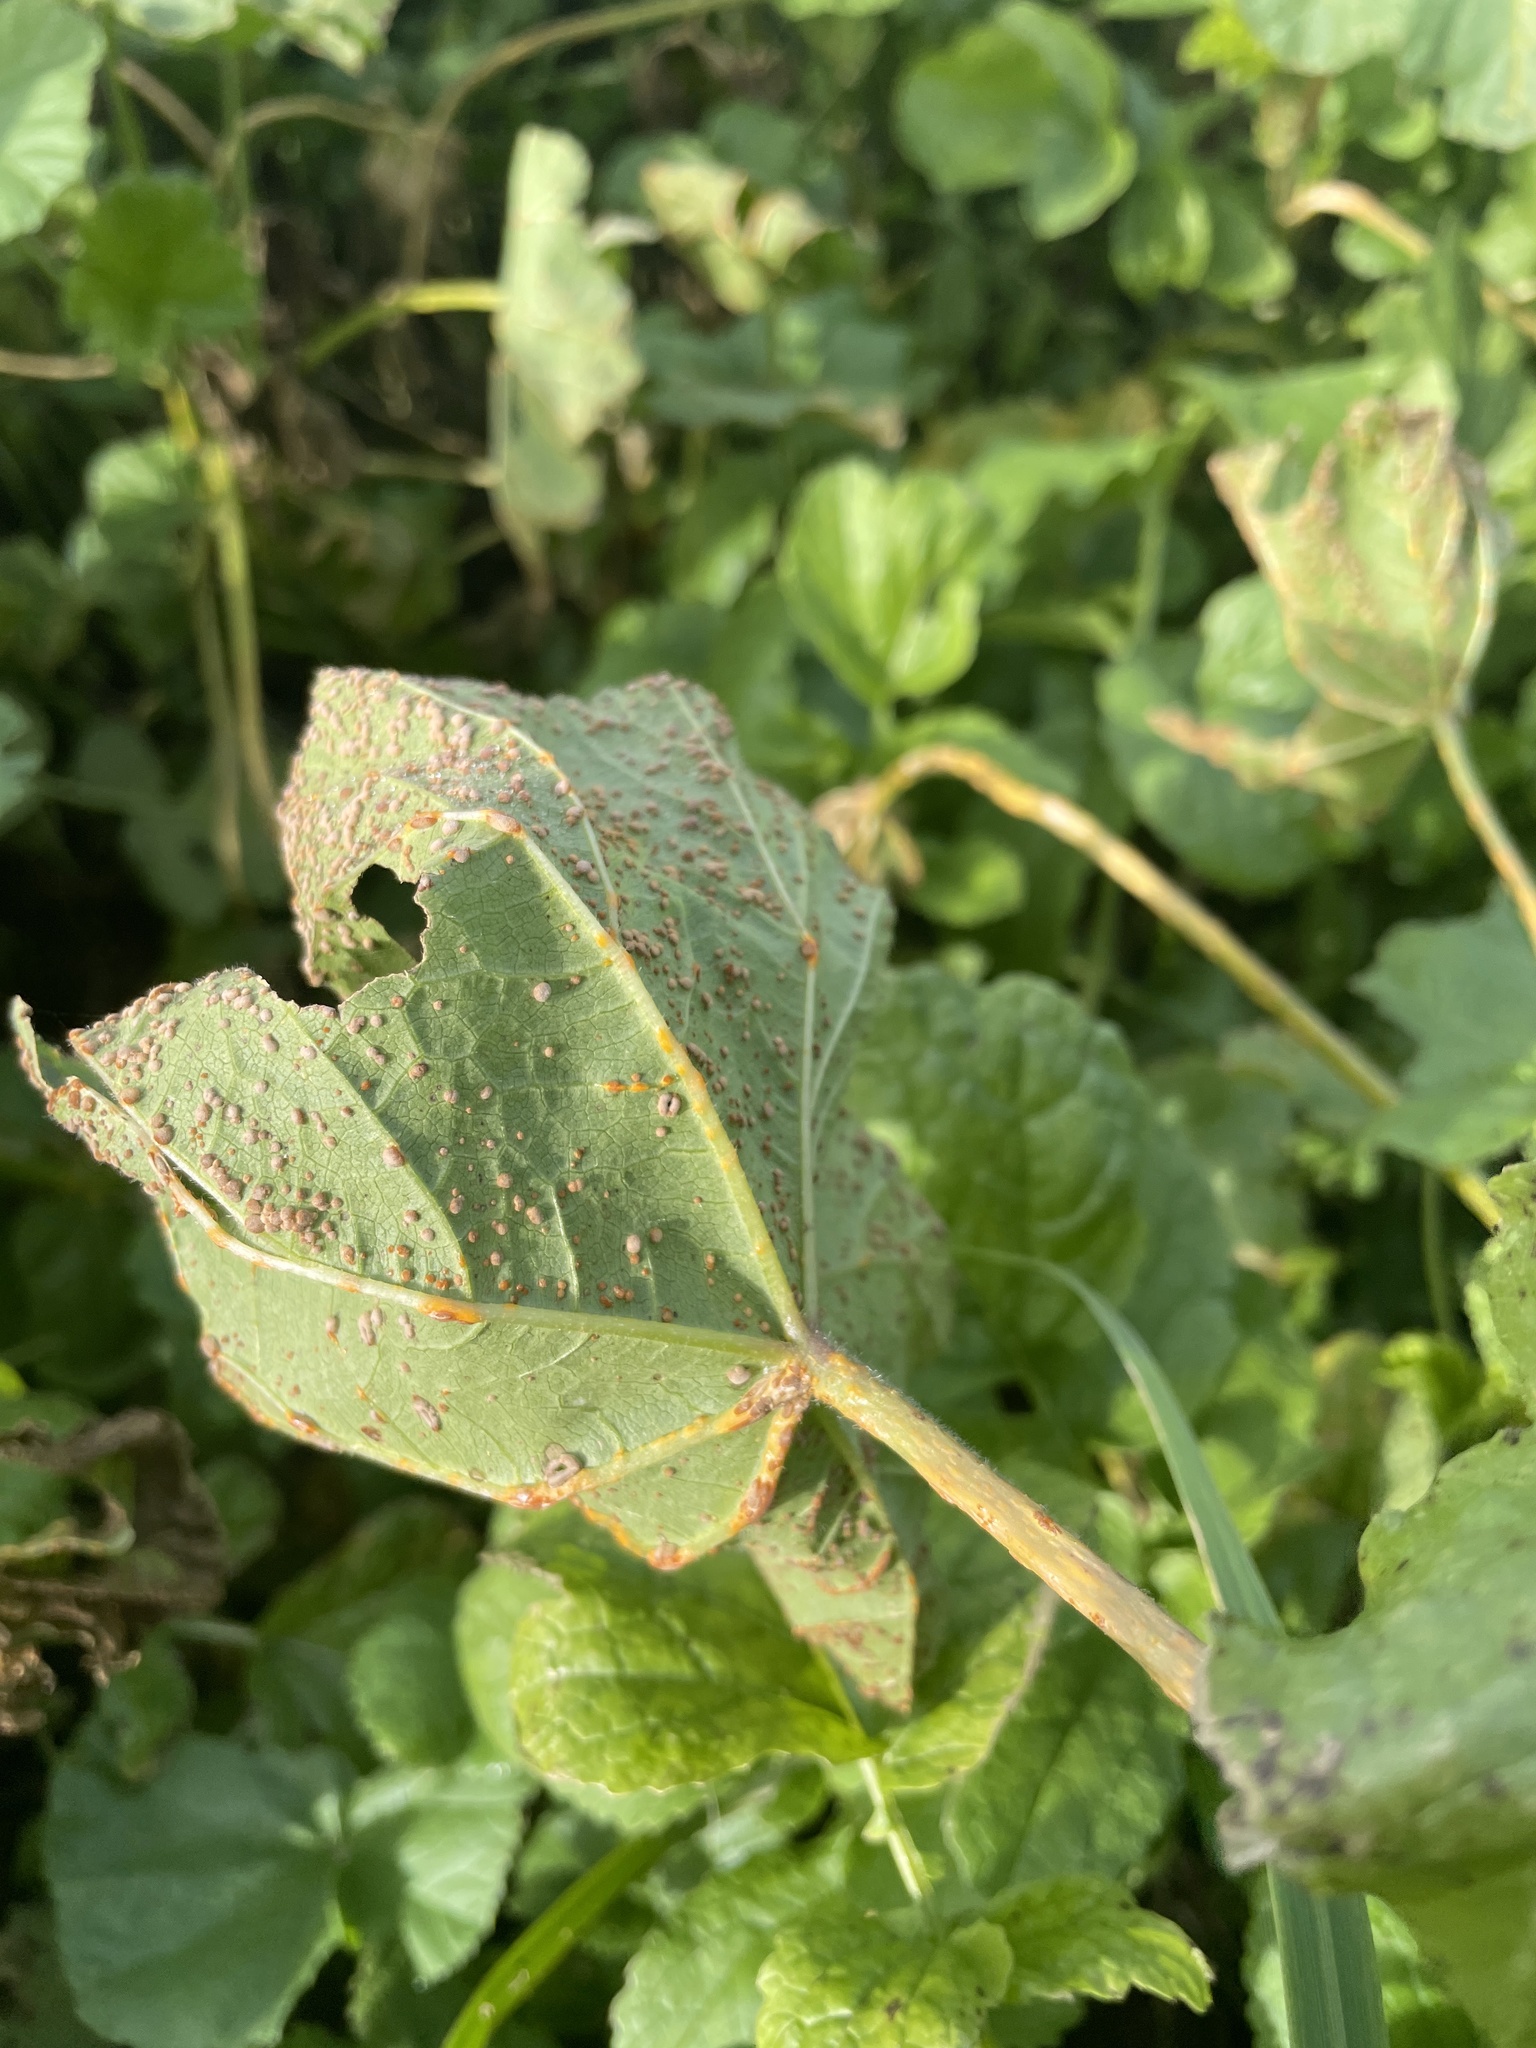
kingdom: Fungi
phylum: Basidiomycota
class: Pucciniomycetes
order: Pucciniales
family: Pucciniaceae
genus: Puccinia
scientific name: Puccinia malvacearum
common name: Hollyhock rust
